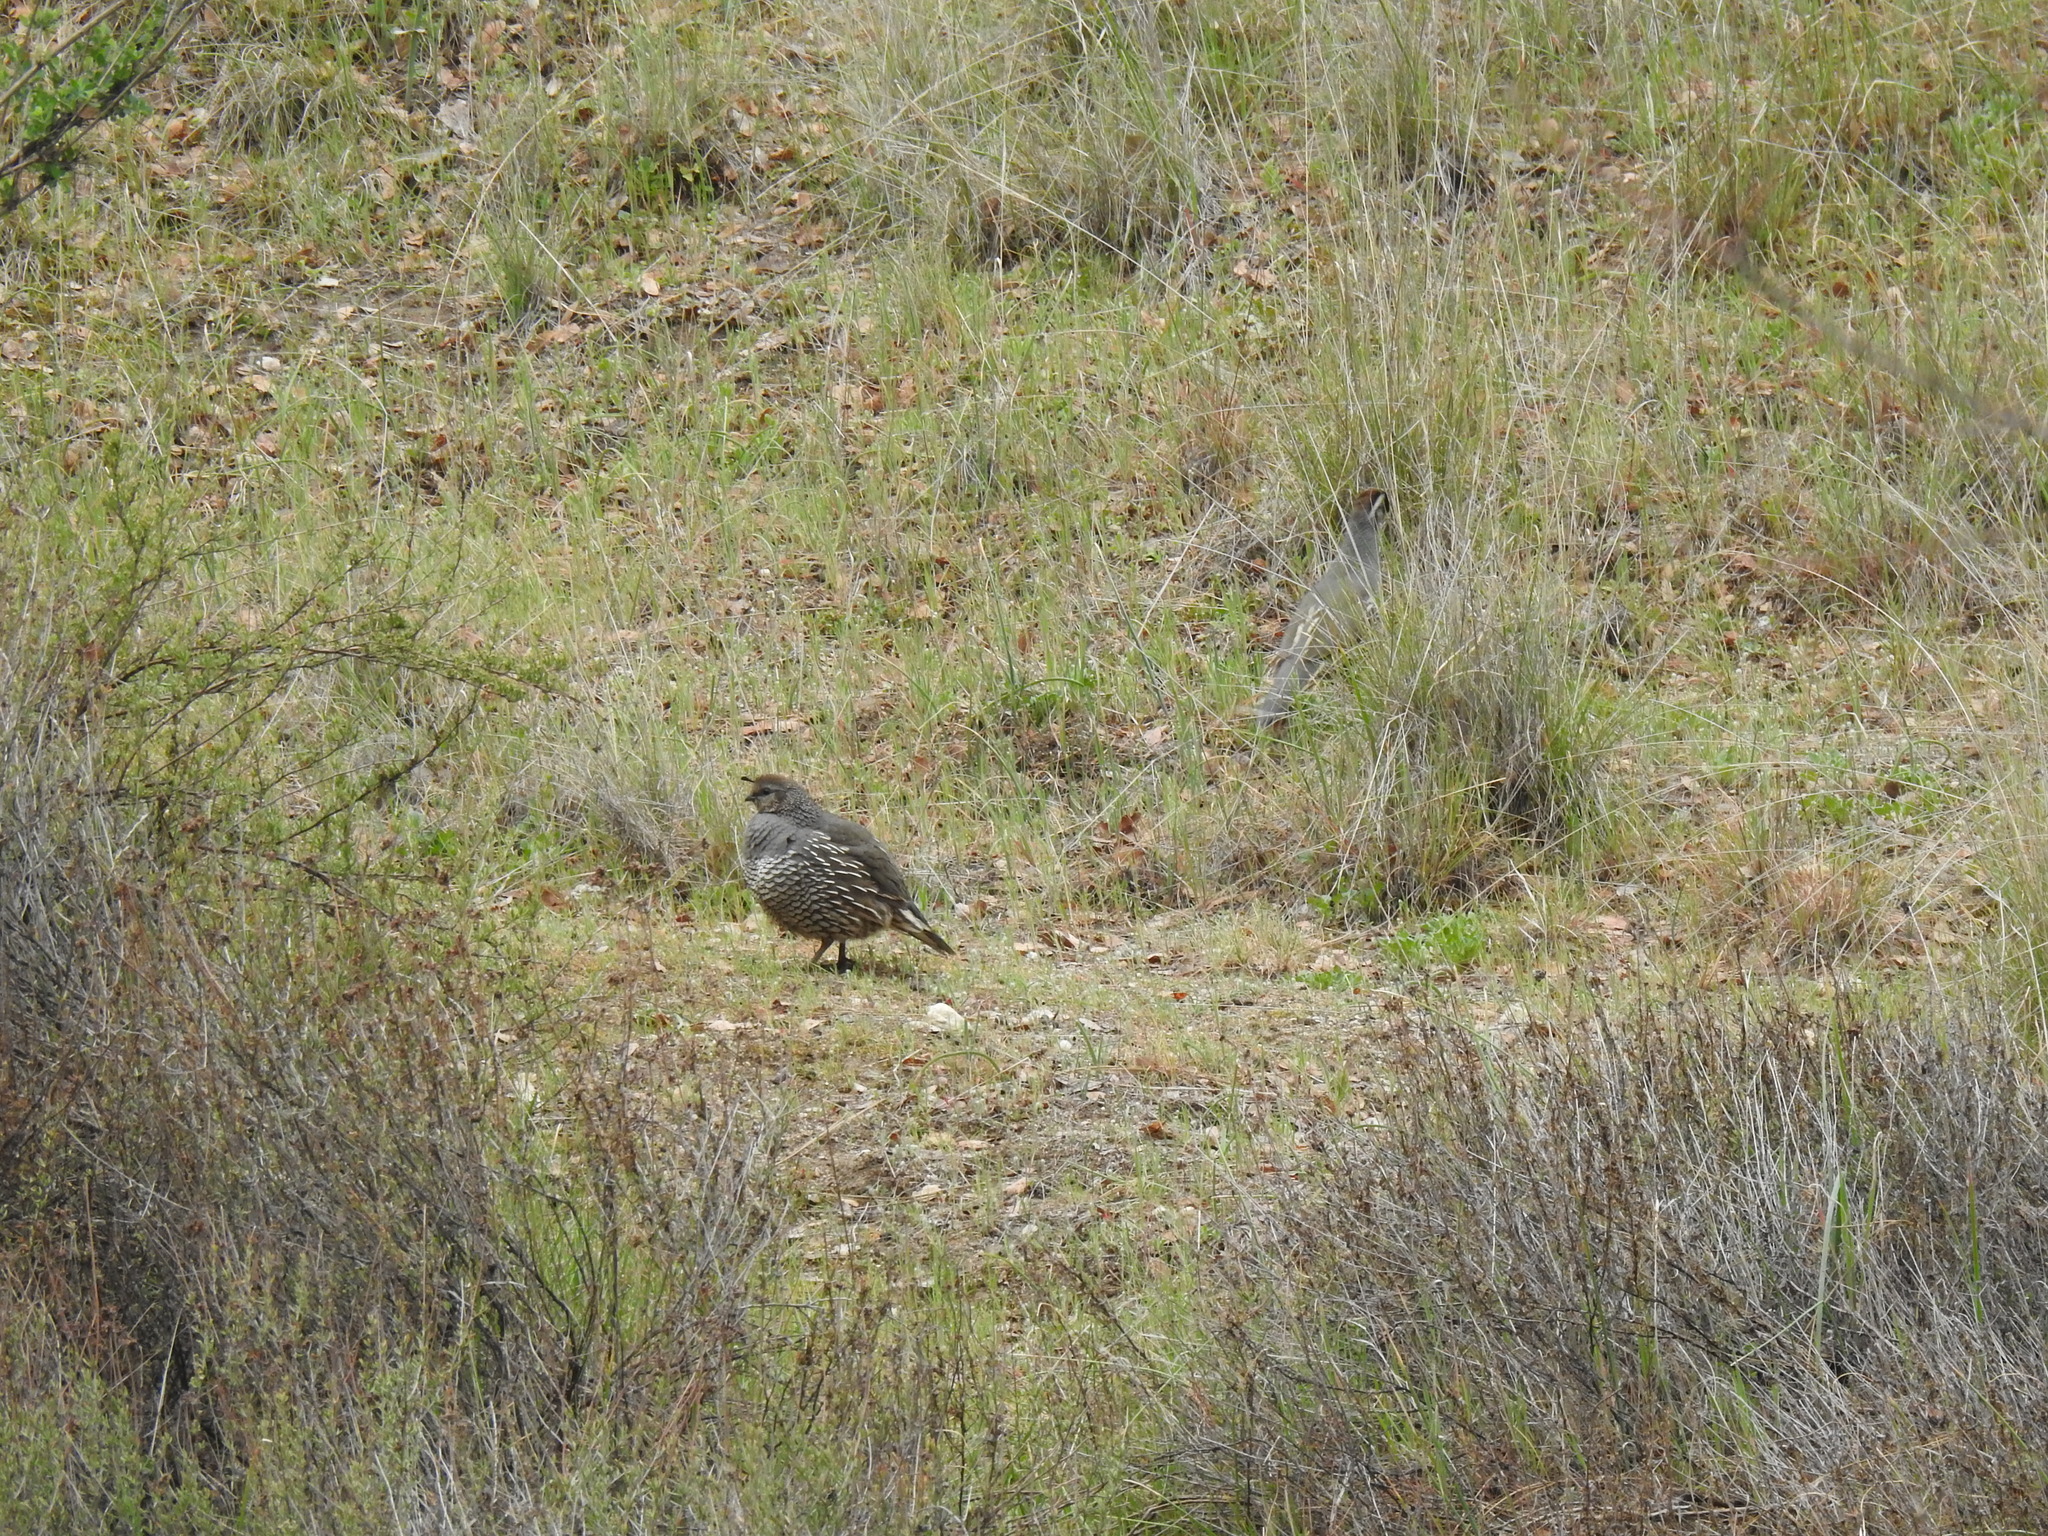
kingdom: Animalia
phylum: Chordata
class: Aves
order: Galliformes
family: Odontophoridae
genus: Callipepla
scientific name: Callipepla californica
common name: California quail
